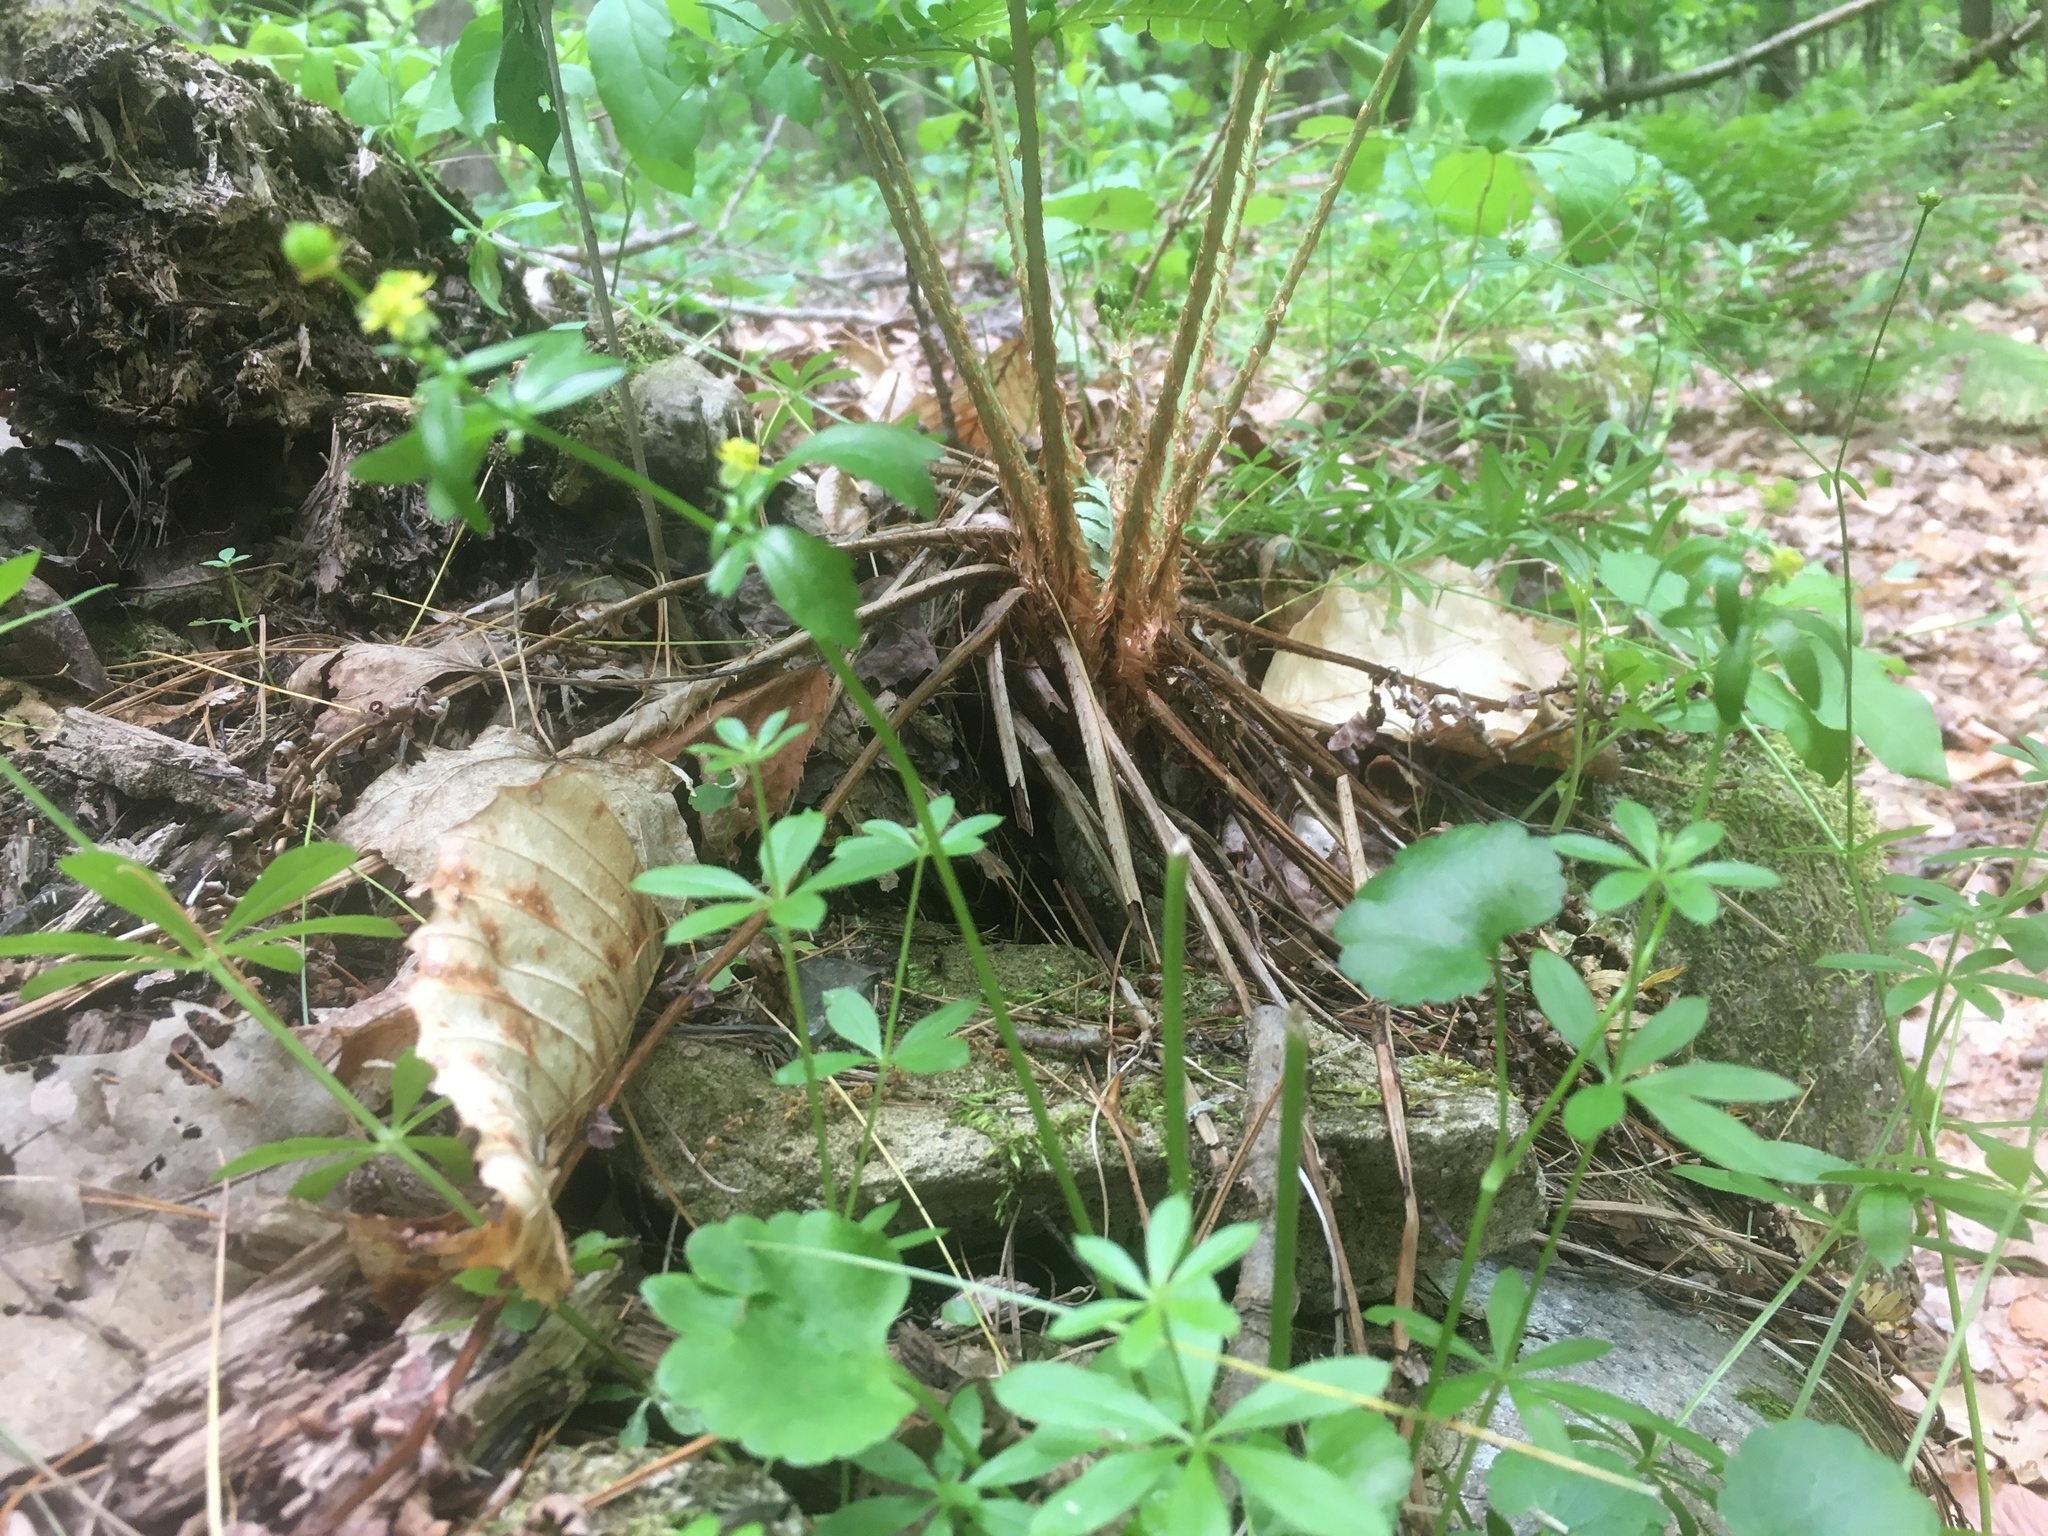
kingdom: Plantae
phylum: Tracheophyta
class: Magnoliopsida
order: Ranunculales
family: Ranunculaceae
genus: Ranunculus
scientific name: Ranunculus abortivus
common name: Early wood buttercup
